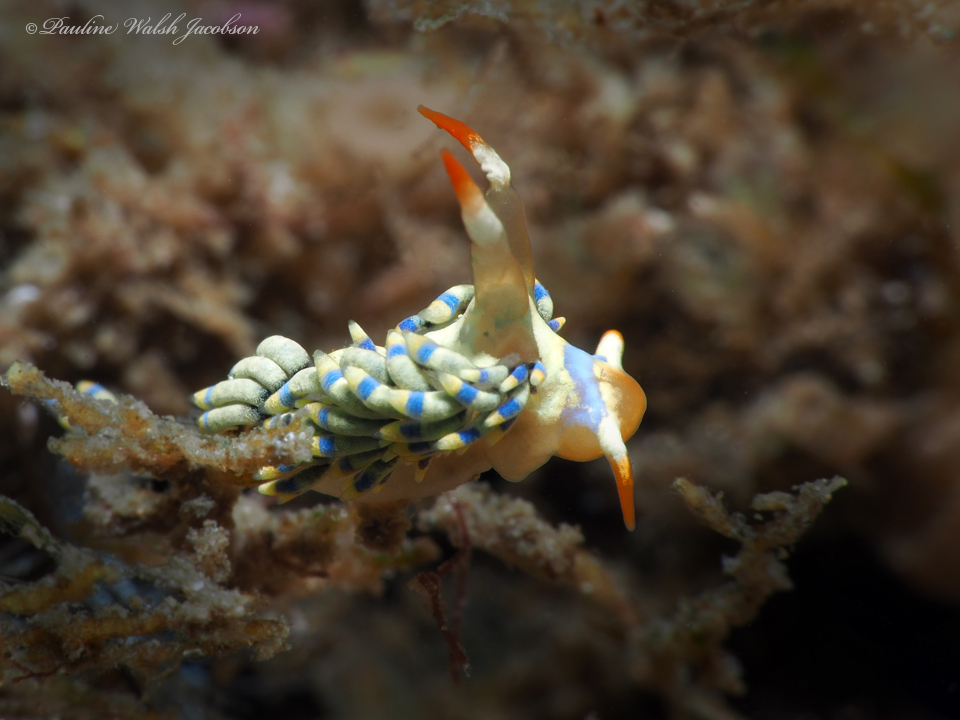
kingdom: Animalia
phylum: Mollusca
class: Gastropoda
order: Nudibranchia
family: Cuthonidae
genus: Cuthona
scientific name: Cuthona herrerai
